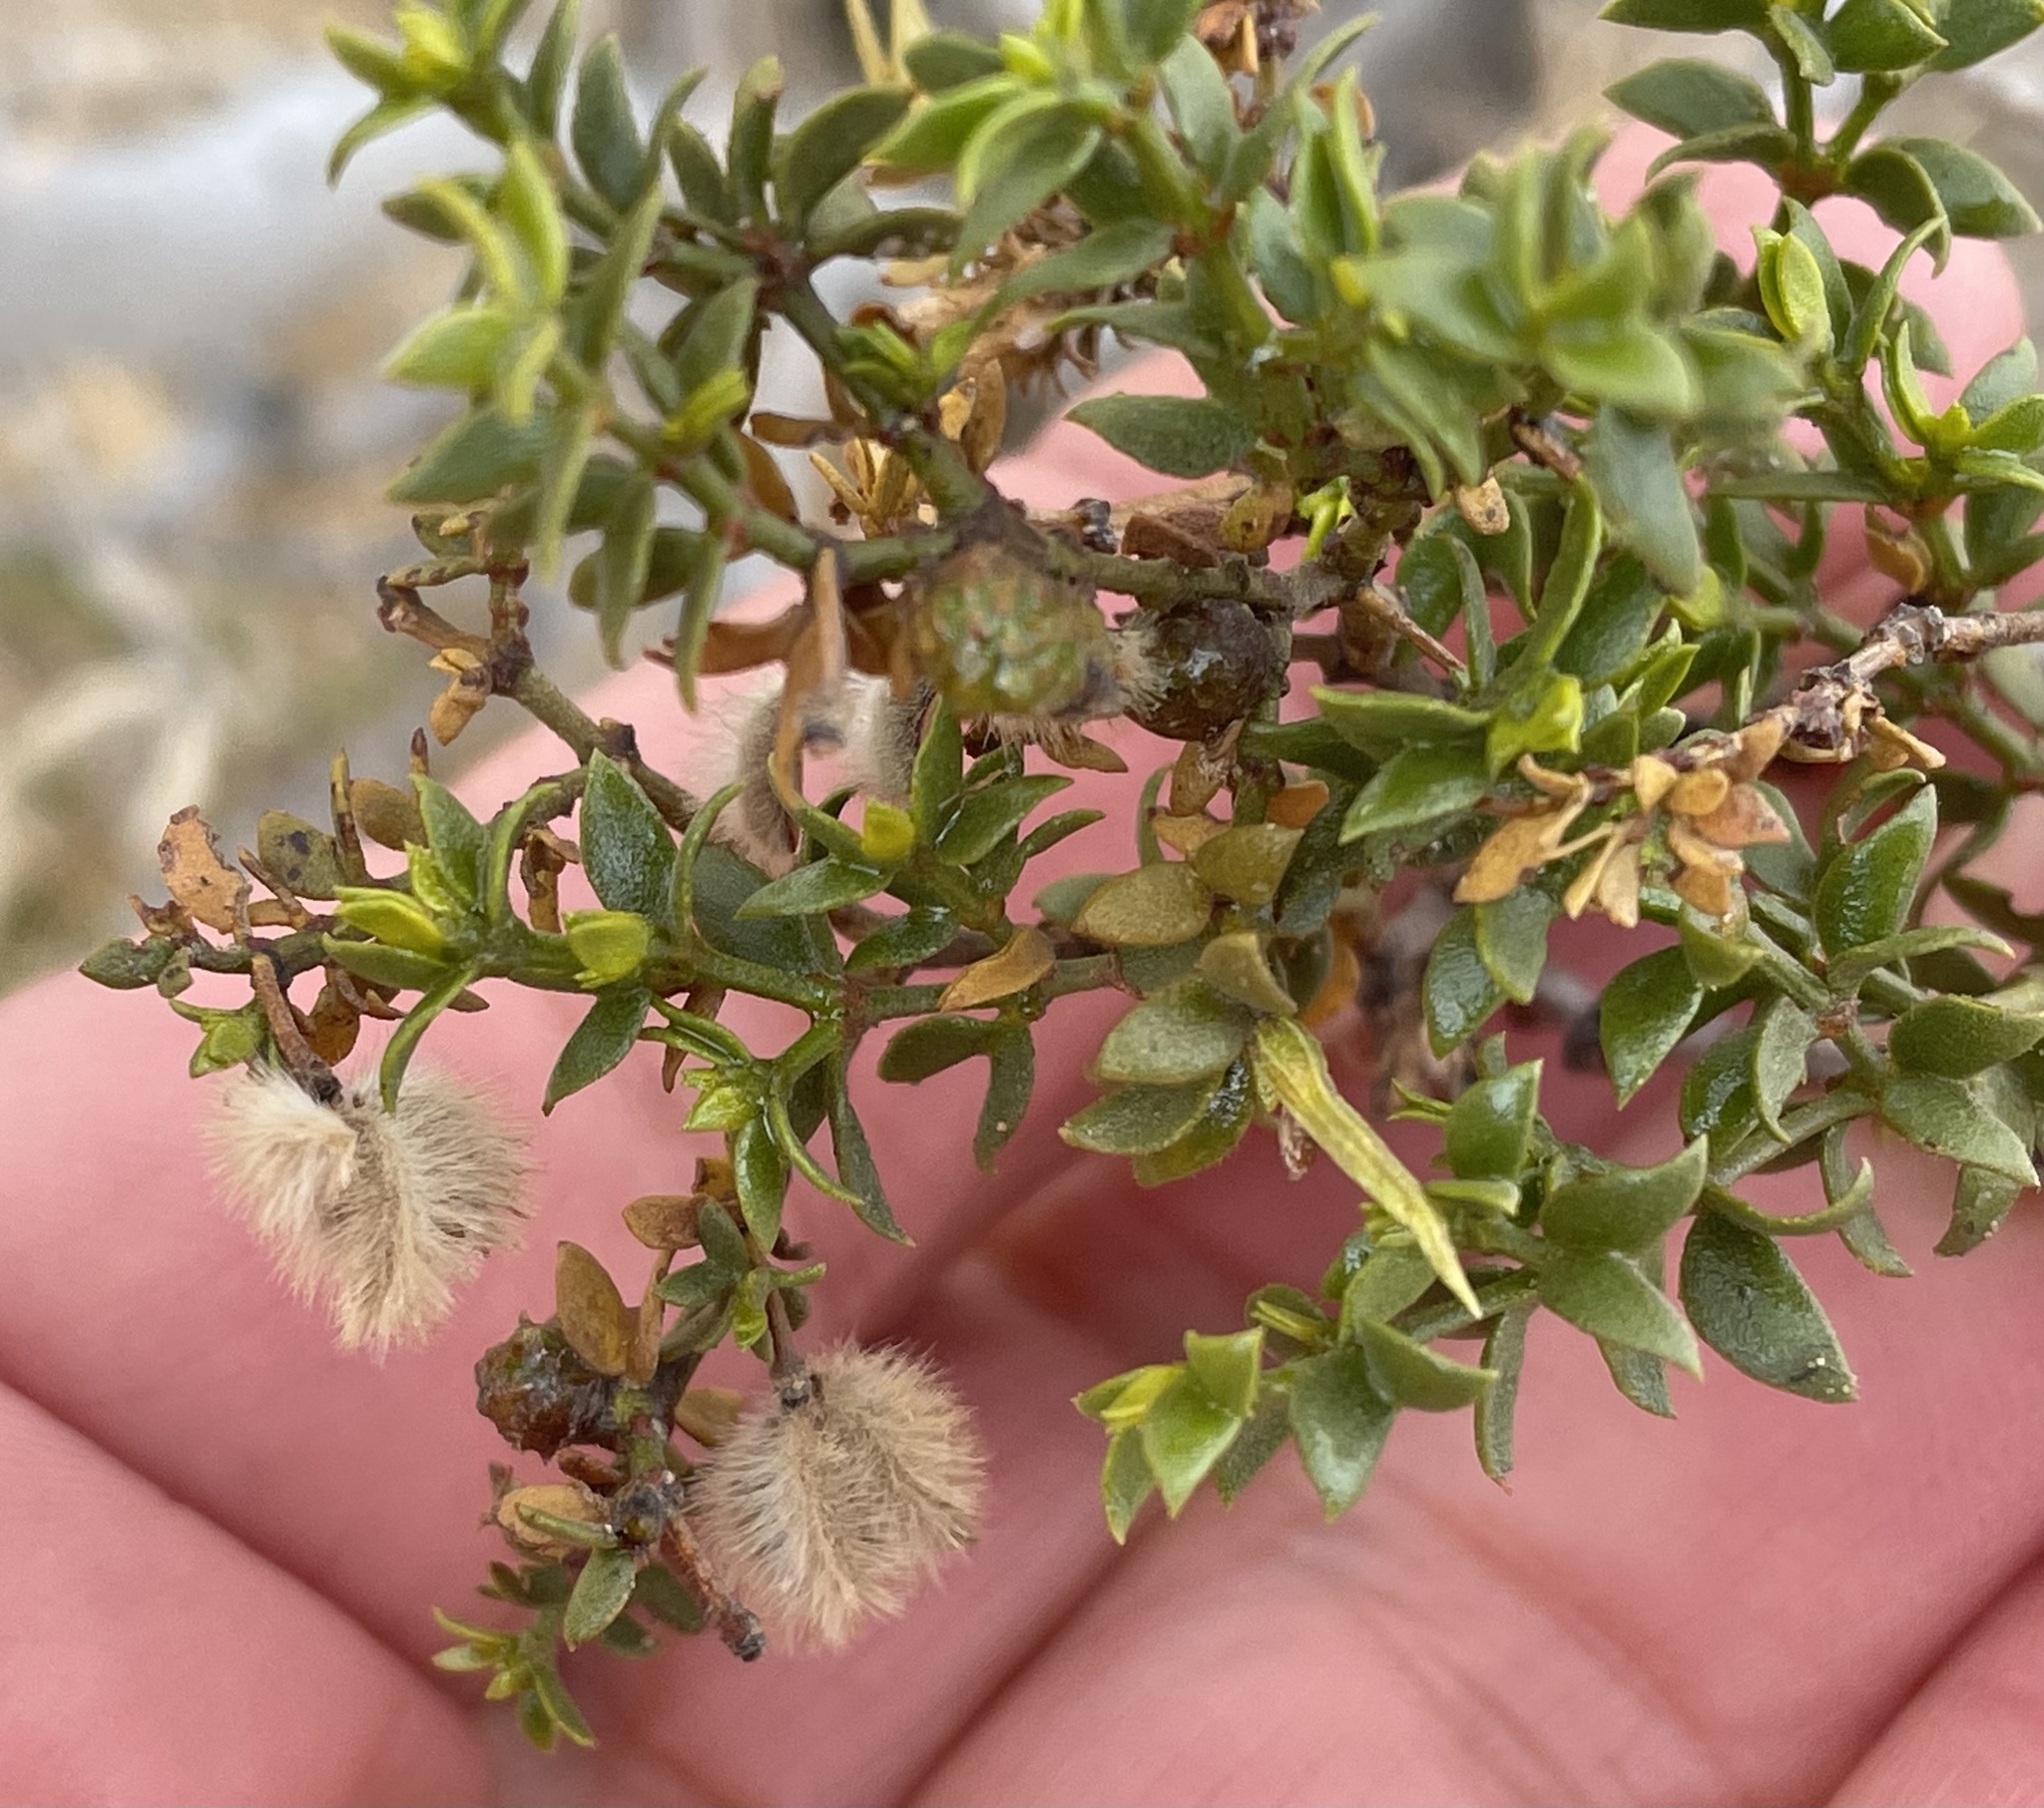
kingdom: Animalia
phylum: Arthropoda
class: Insecta
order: Diptera
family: Cecidomyiidae
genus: Asphondylia
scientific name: Asphondylia apicata
